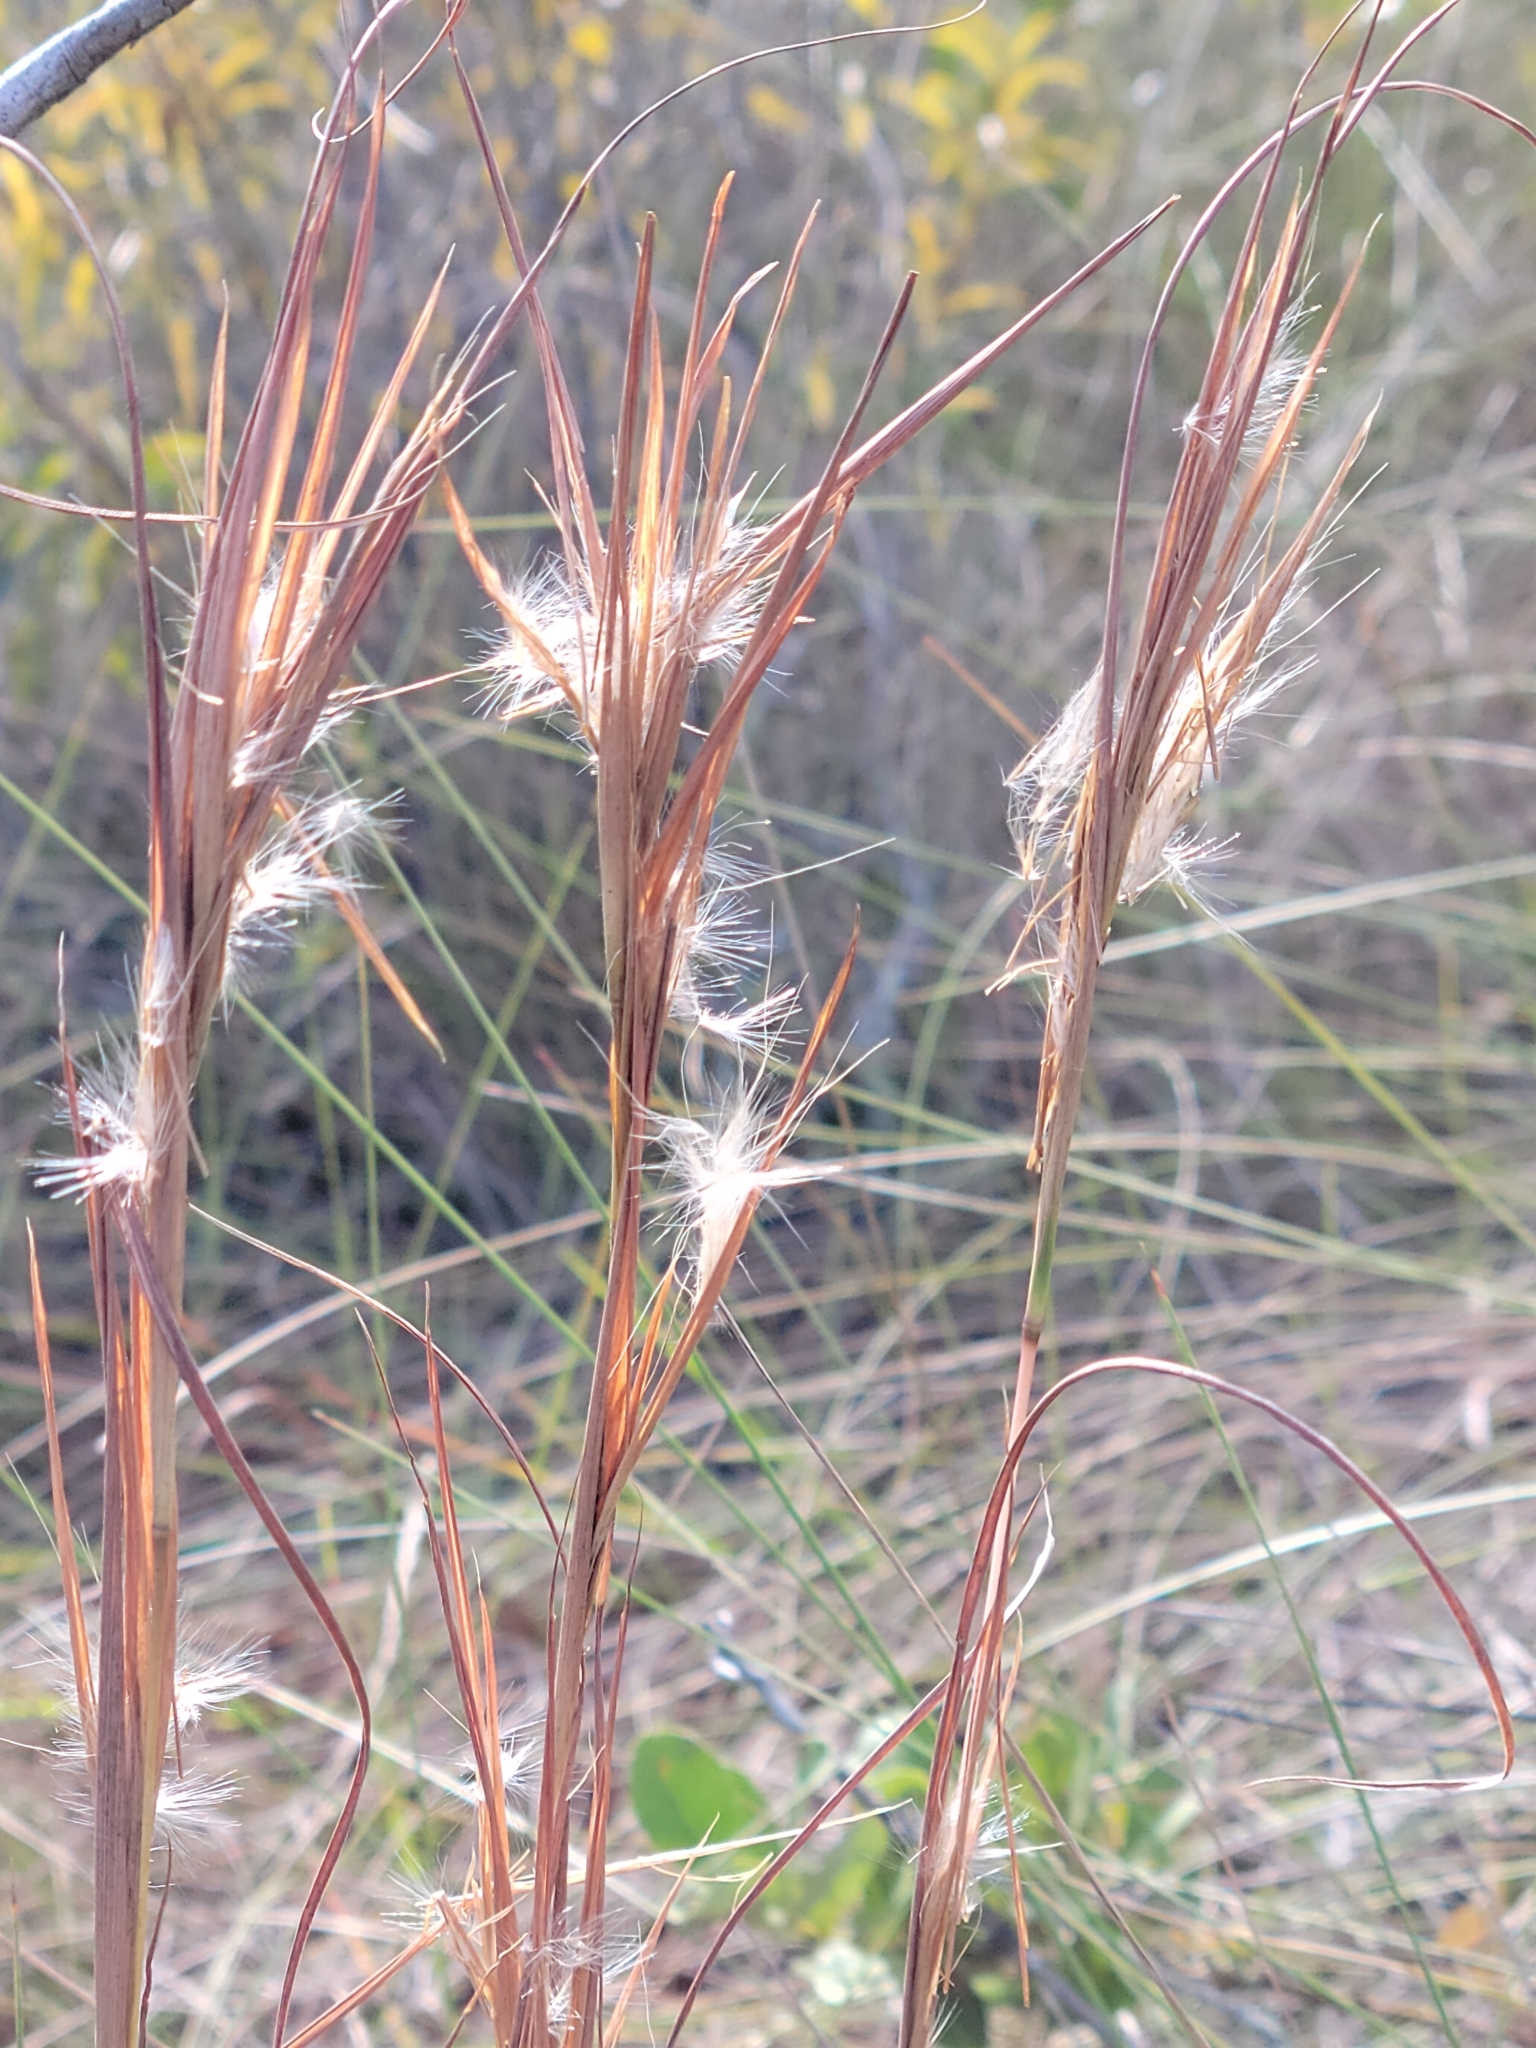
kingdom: Plantae
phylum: Tracheophyta
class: Liliopsida
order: Poales
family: Poaceae
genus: Andropogon
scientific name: Andropogon gyrans
